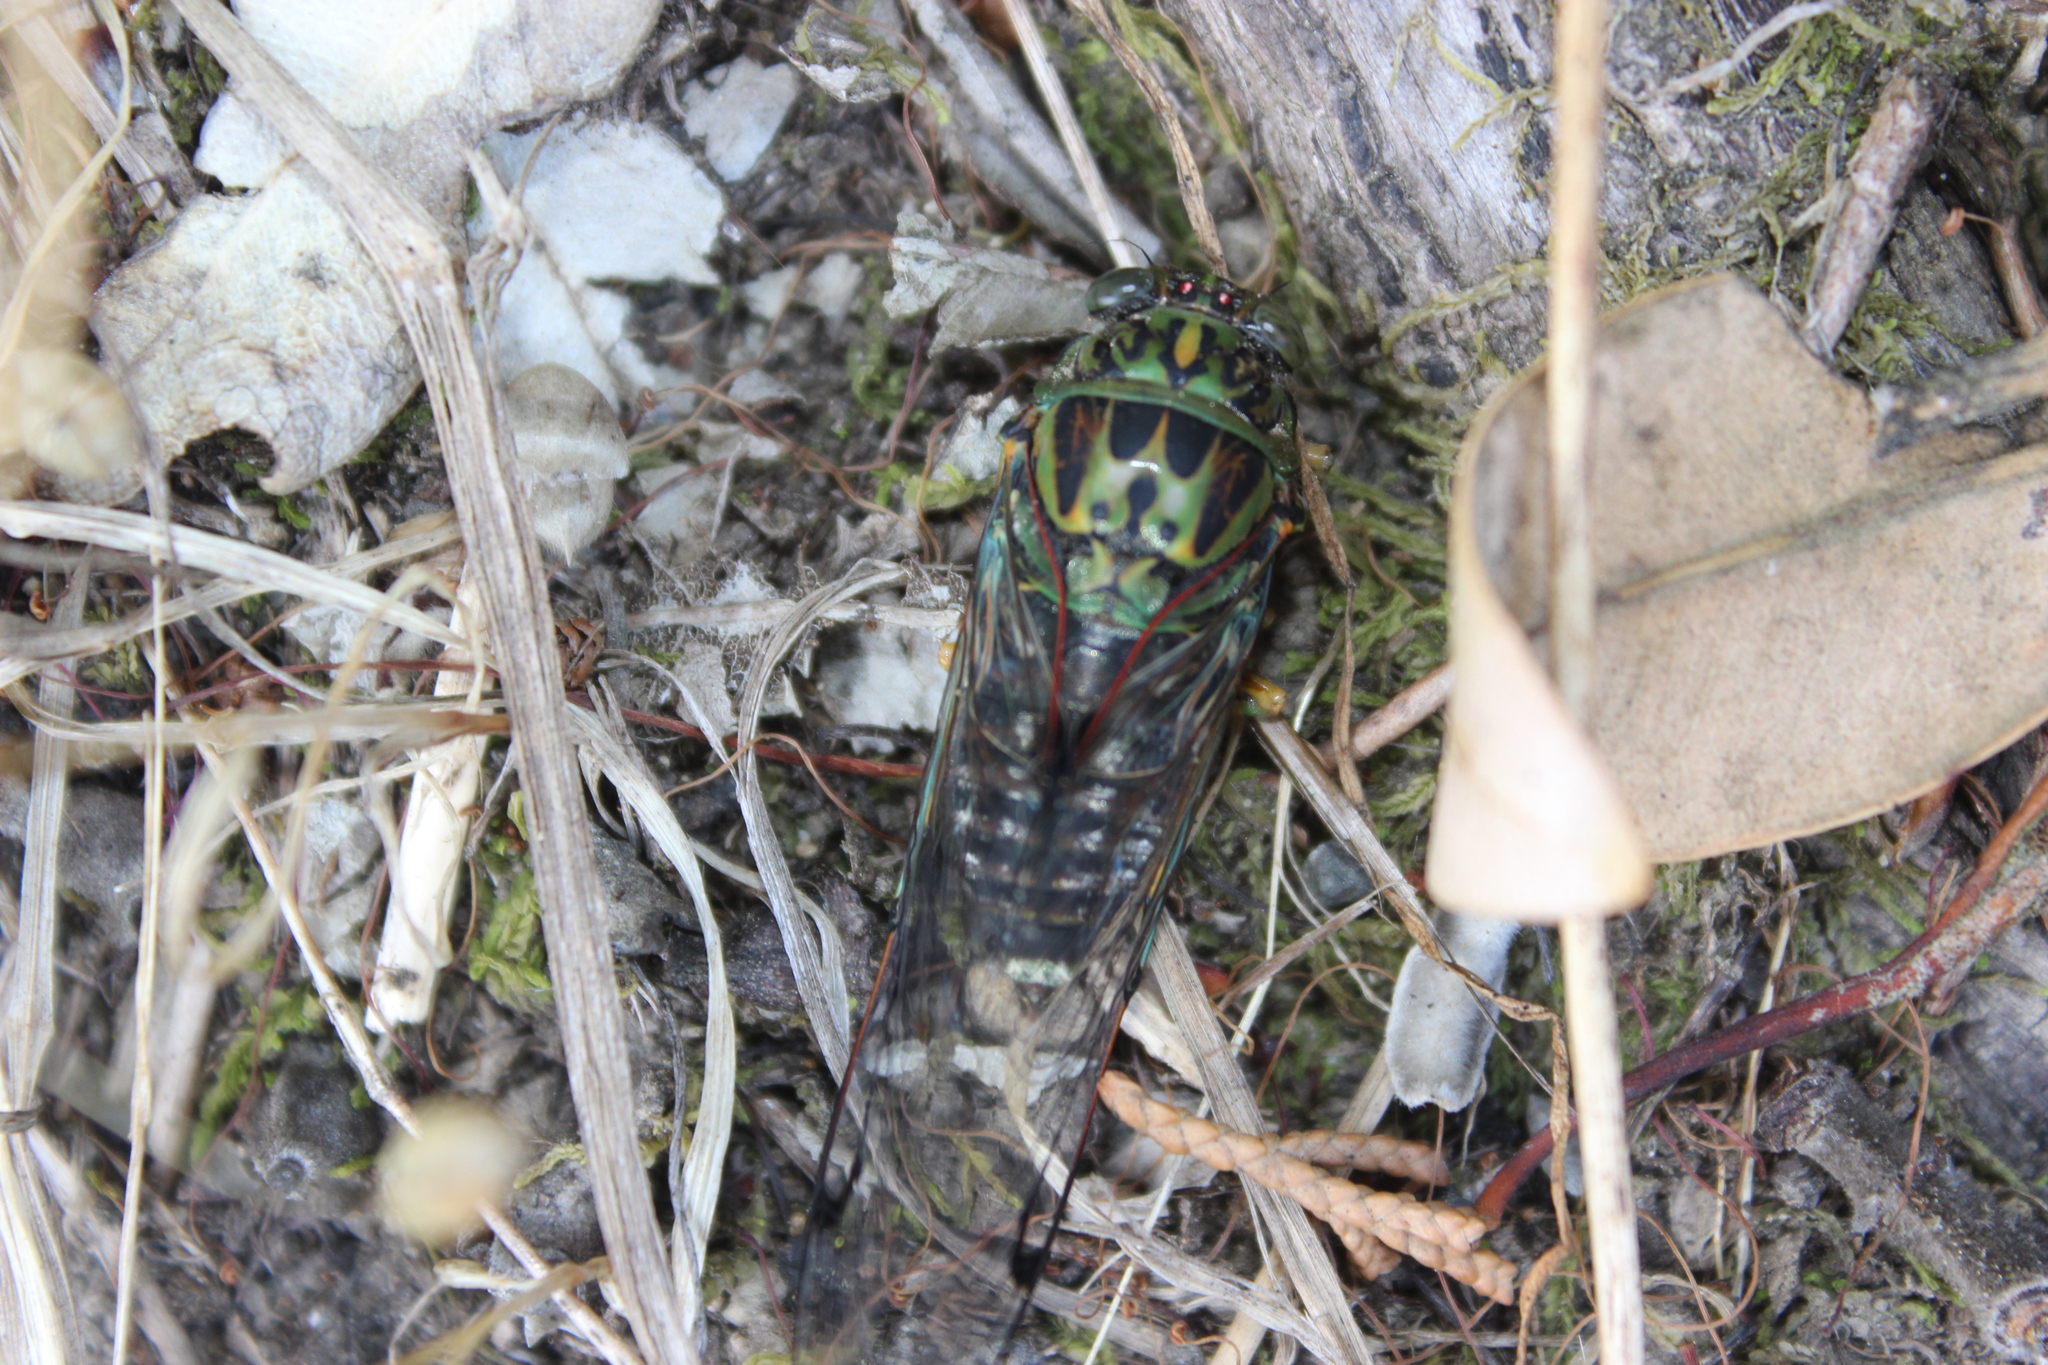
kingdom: Animalia
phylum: Arthropoda
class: Insecta
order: Hemiptera
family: Cicadidae
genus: Amphipsalta
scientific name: Amphipsalta zelandica
